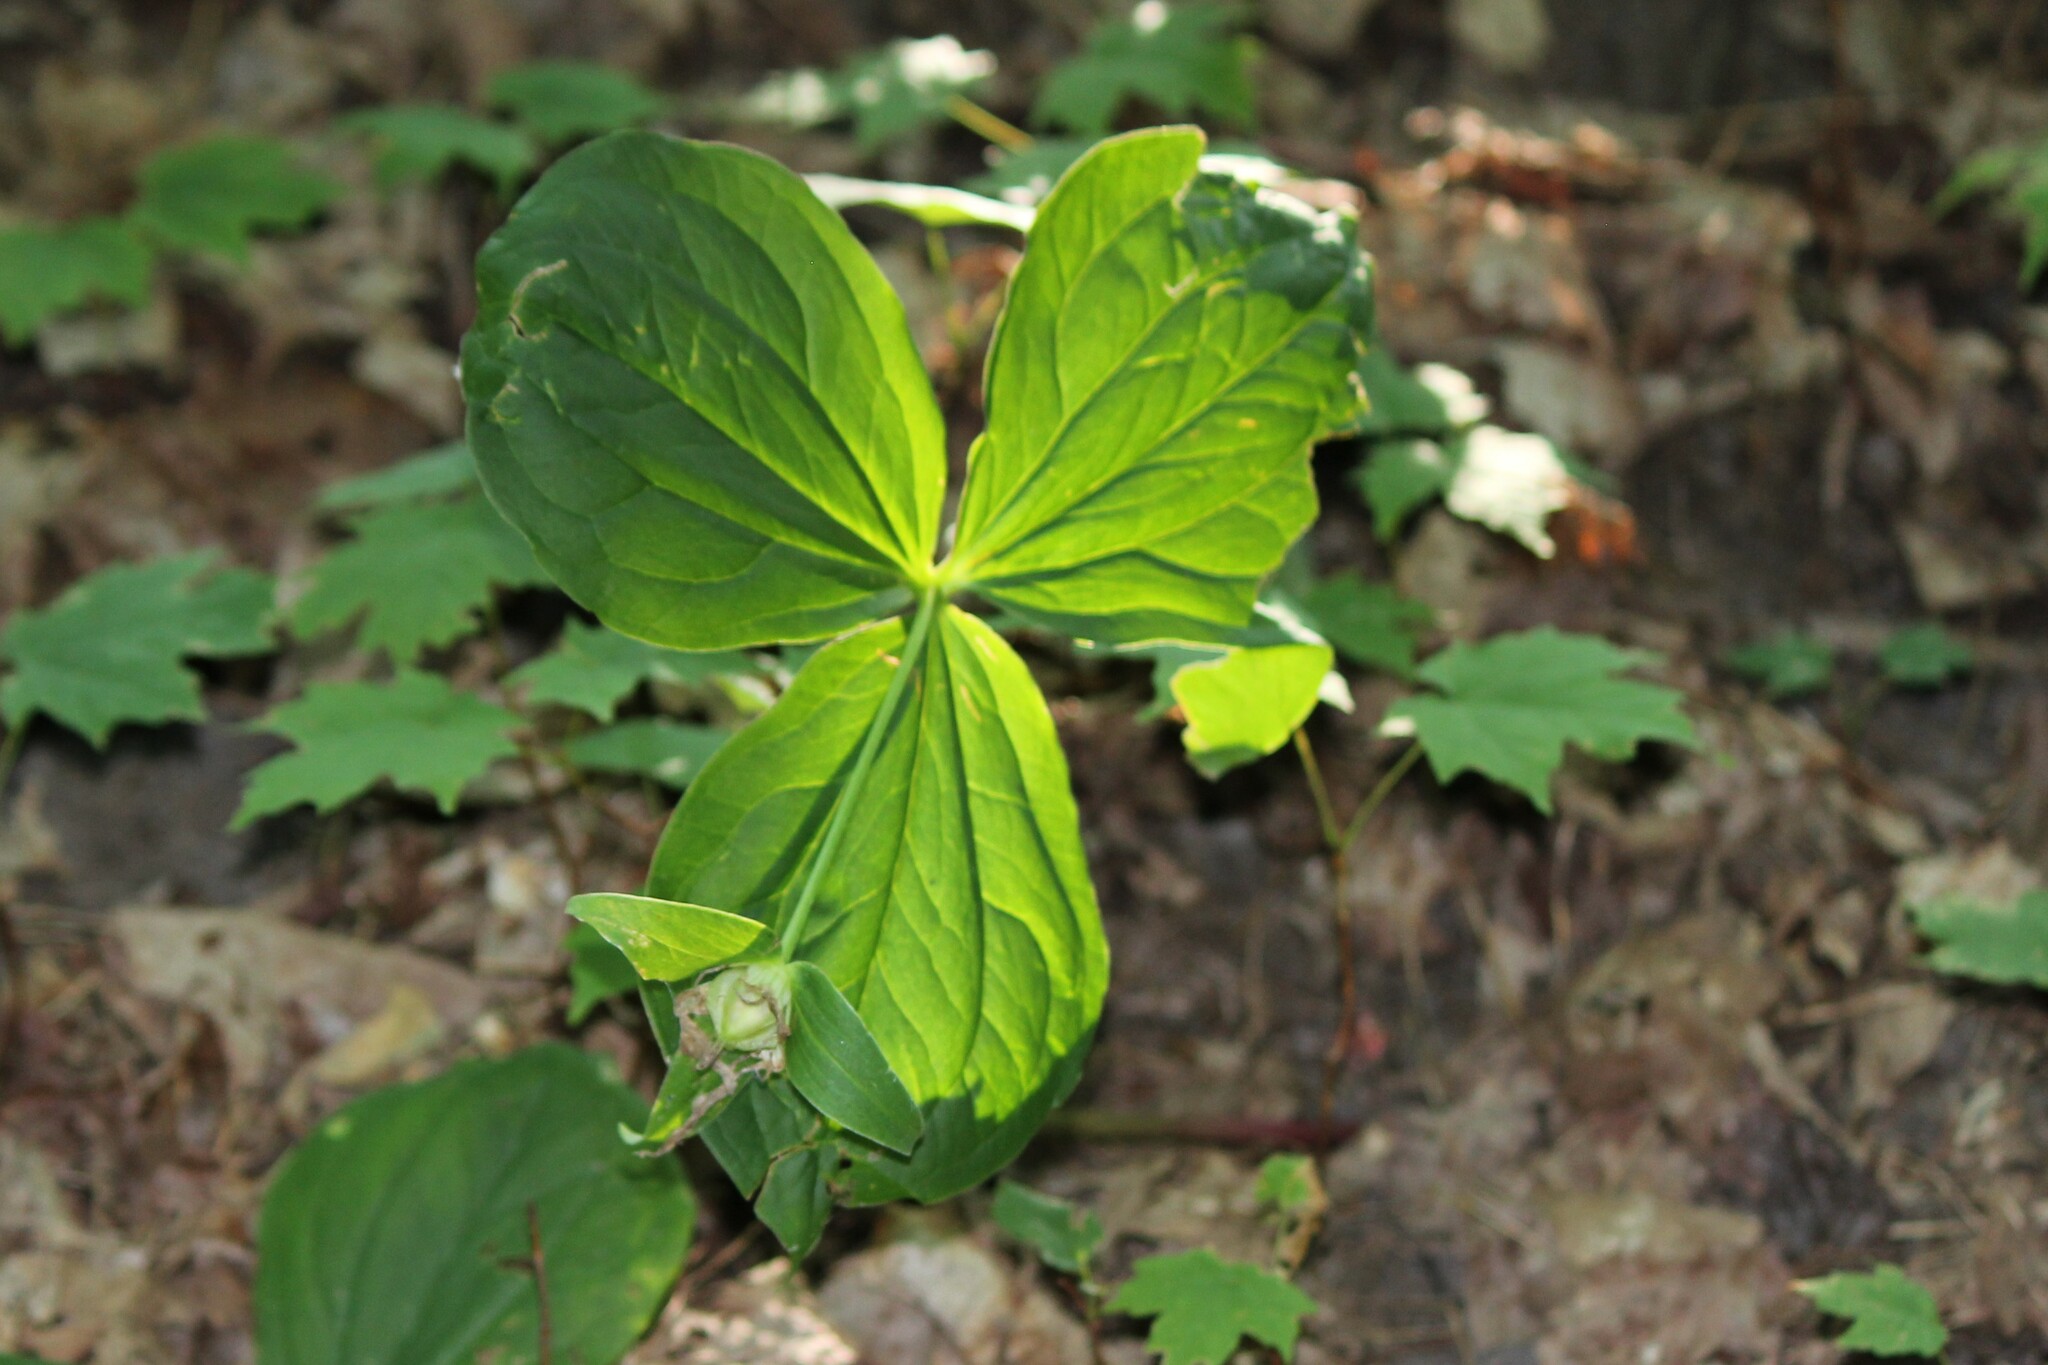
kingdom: Plantae
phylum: Tracheophyta
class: Liliopsida
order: Liliales
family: Melanthiaceae
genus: Trillium
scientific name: Trillium grandiflorum
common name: Great white trillium
